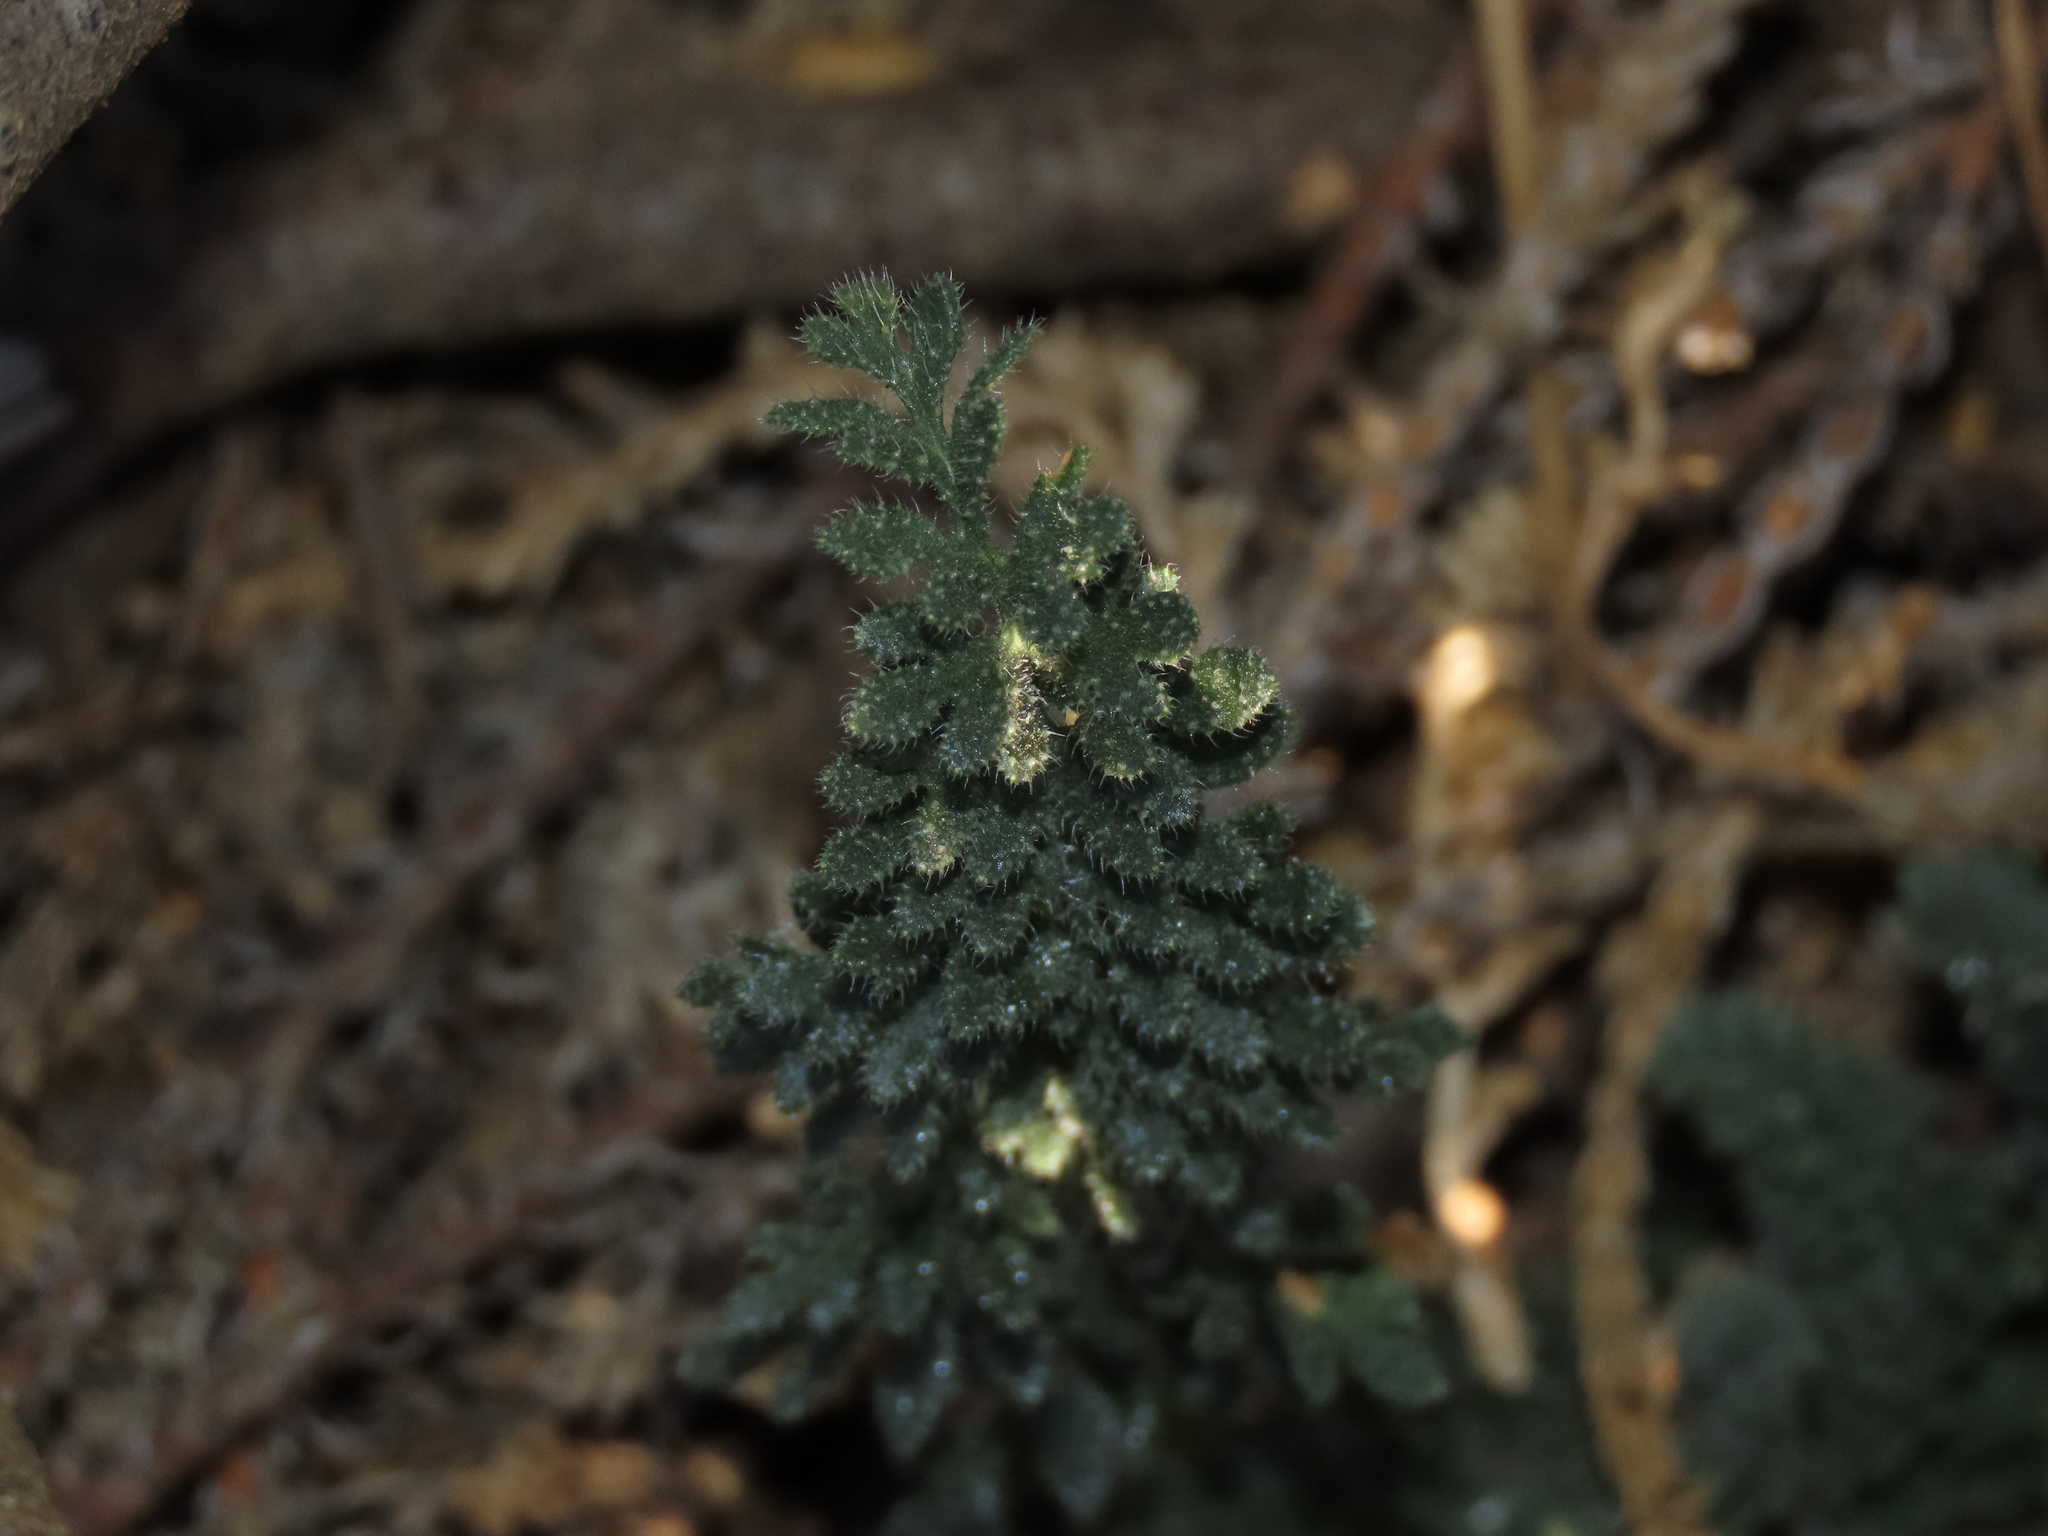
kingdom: Plantae
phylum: Tracheophyta
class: Magnoliopsida
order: Cornales
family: Loasaceae
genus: Loasa
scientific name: Loasa sigmoidea
